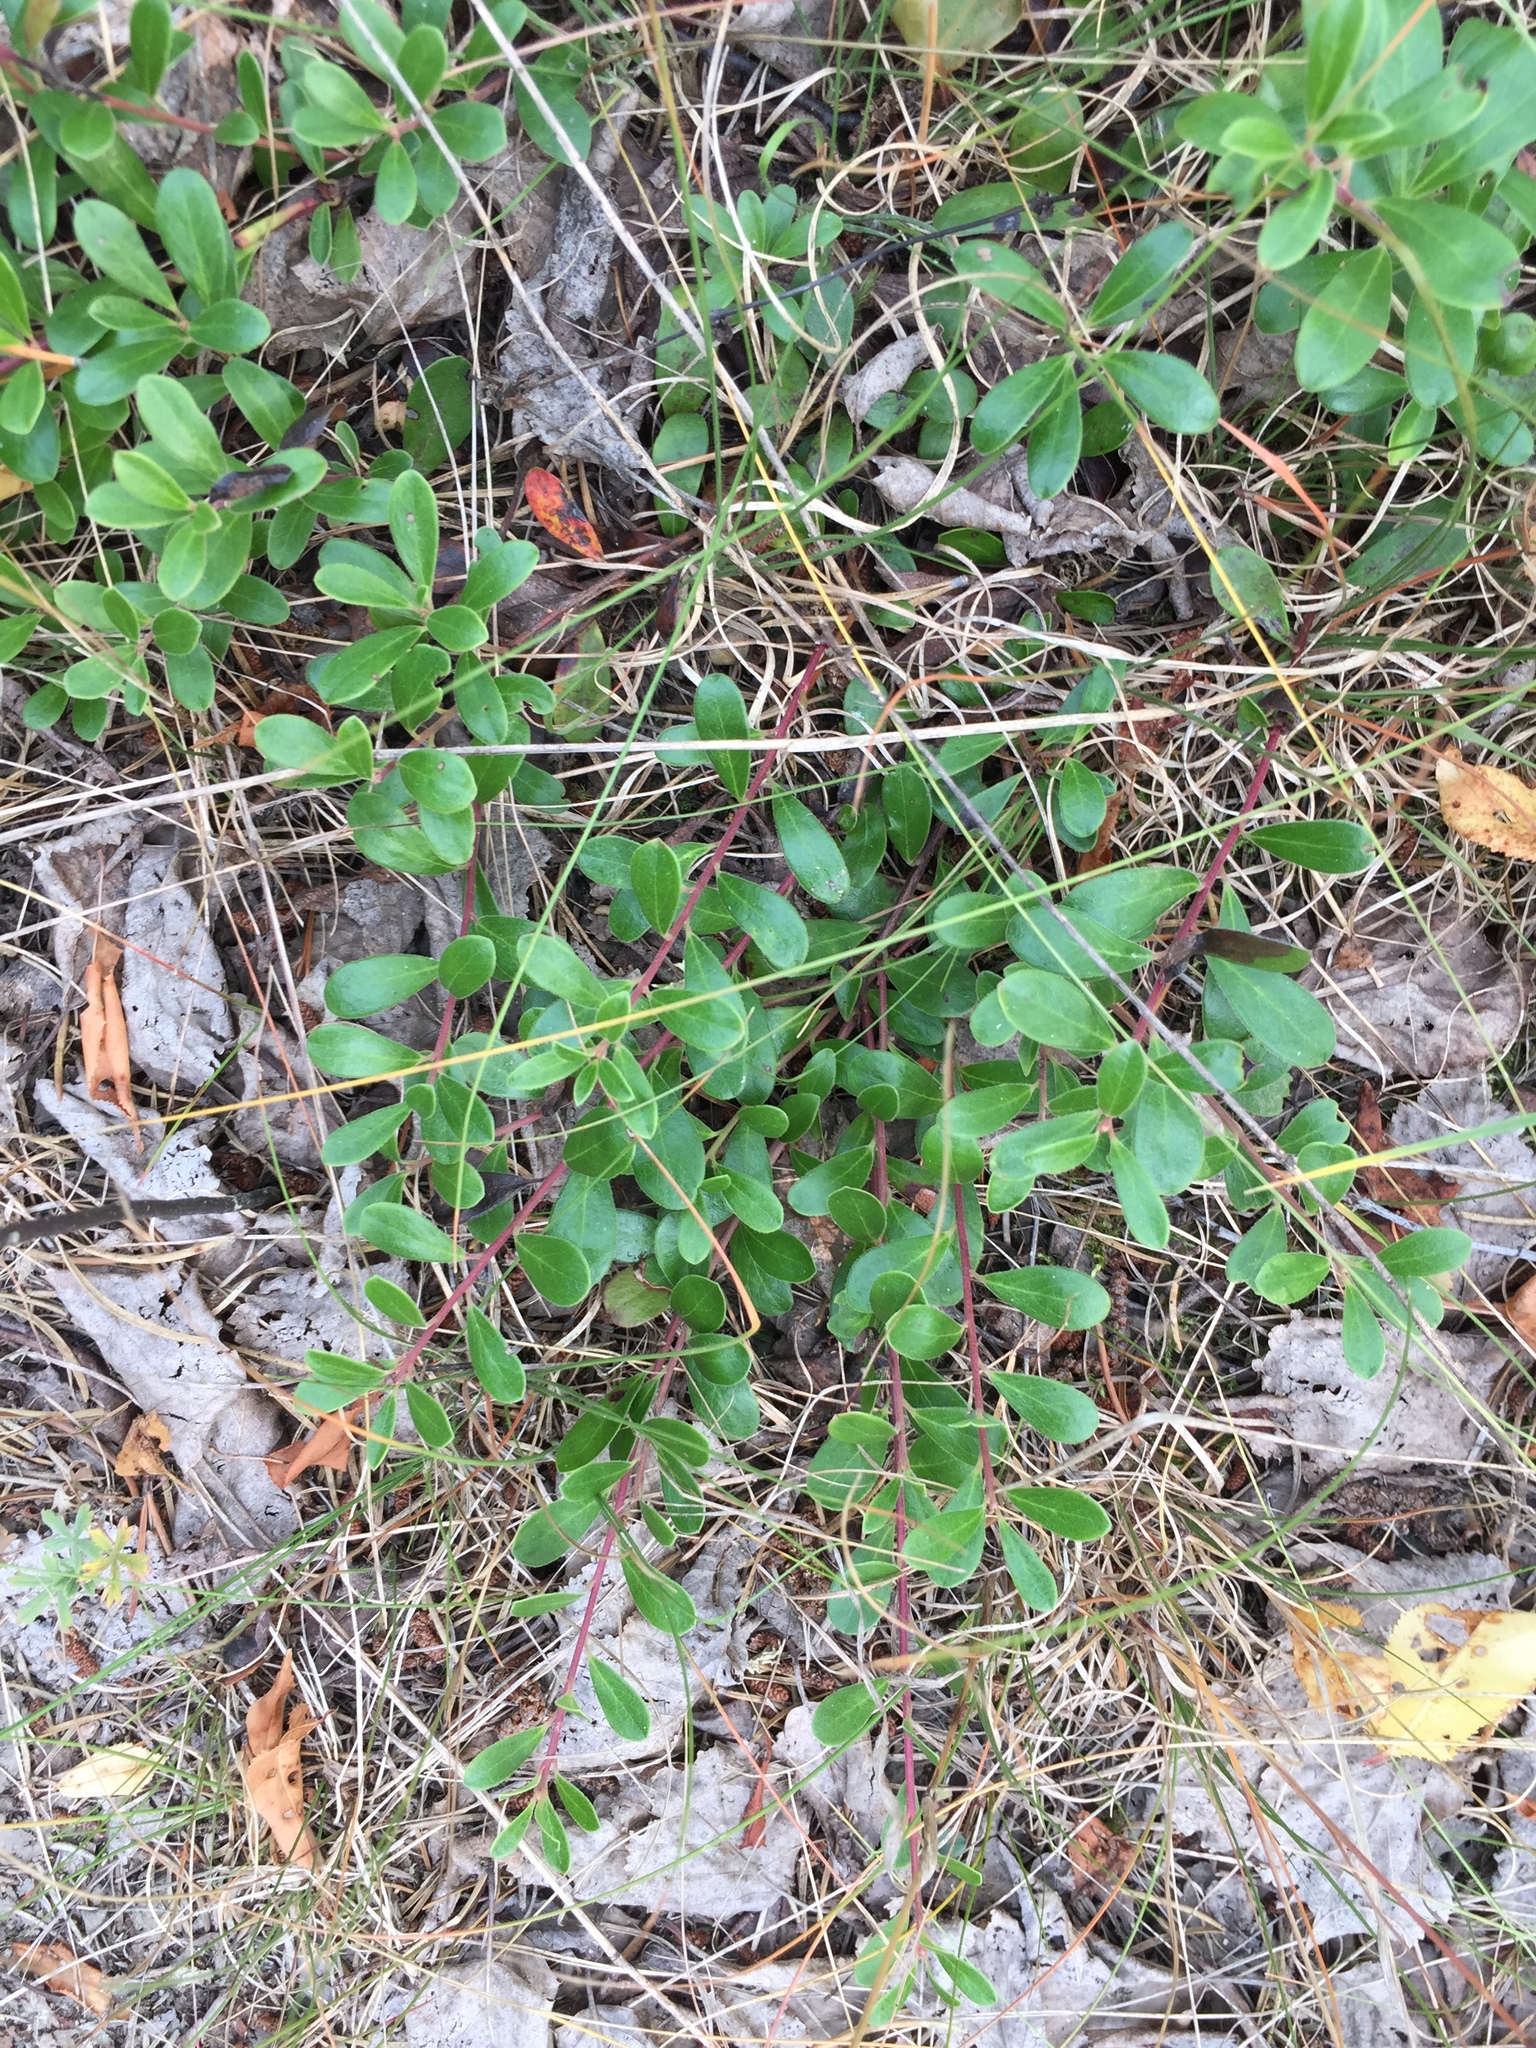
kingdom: Plantae
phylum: Tracheophyta
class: Magnoliopsida
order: Ericales
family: Ericaceae
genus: Arctostaphylos
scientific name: Arctostaphylos uva-ursi
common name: Bearberry
